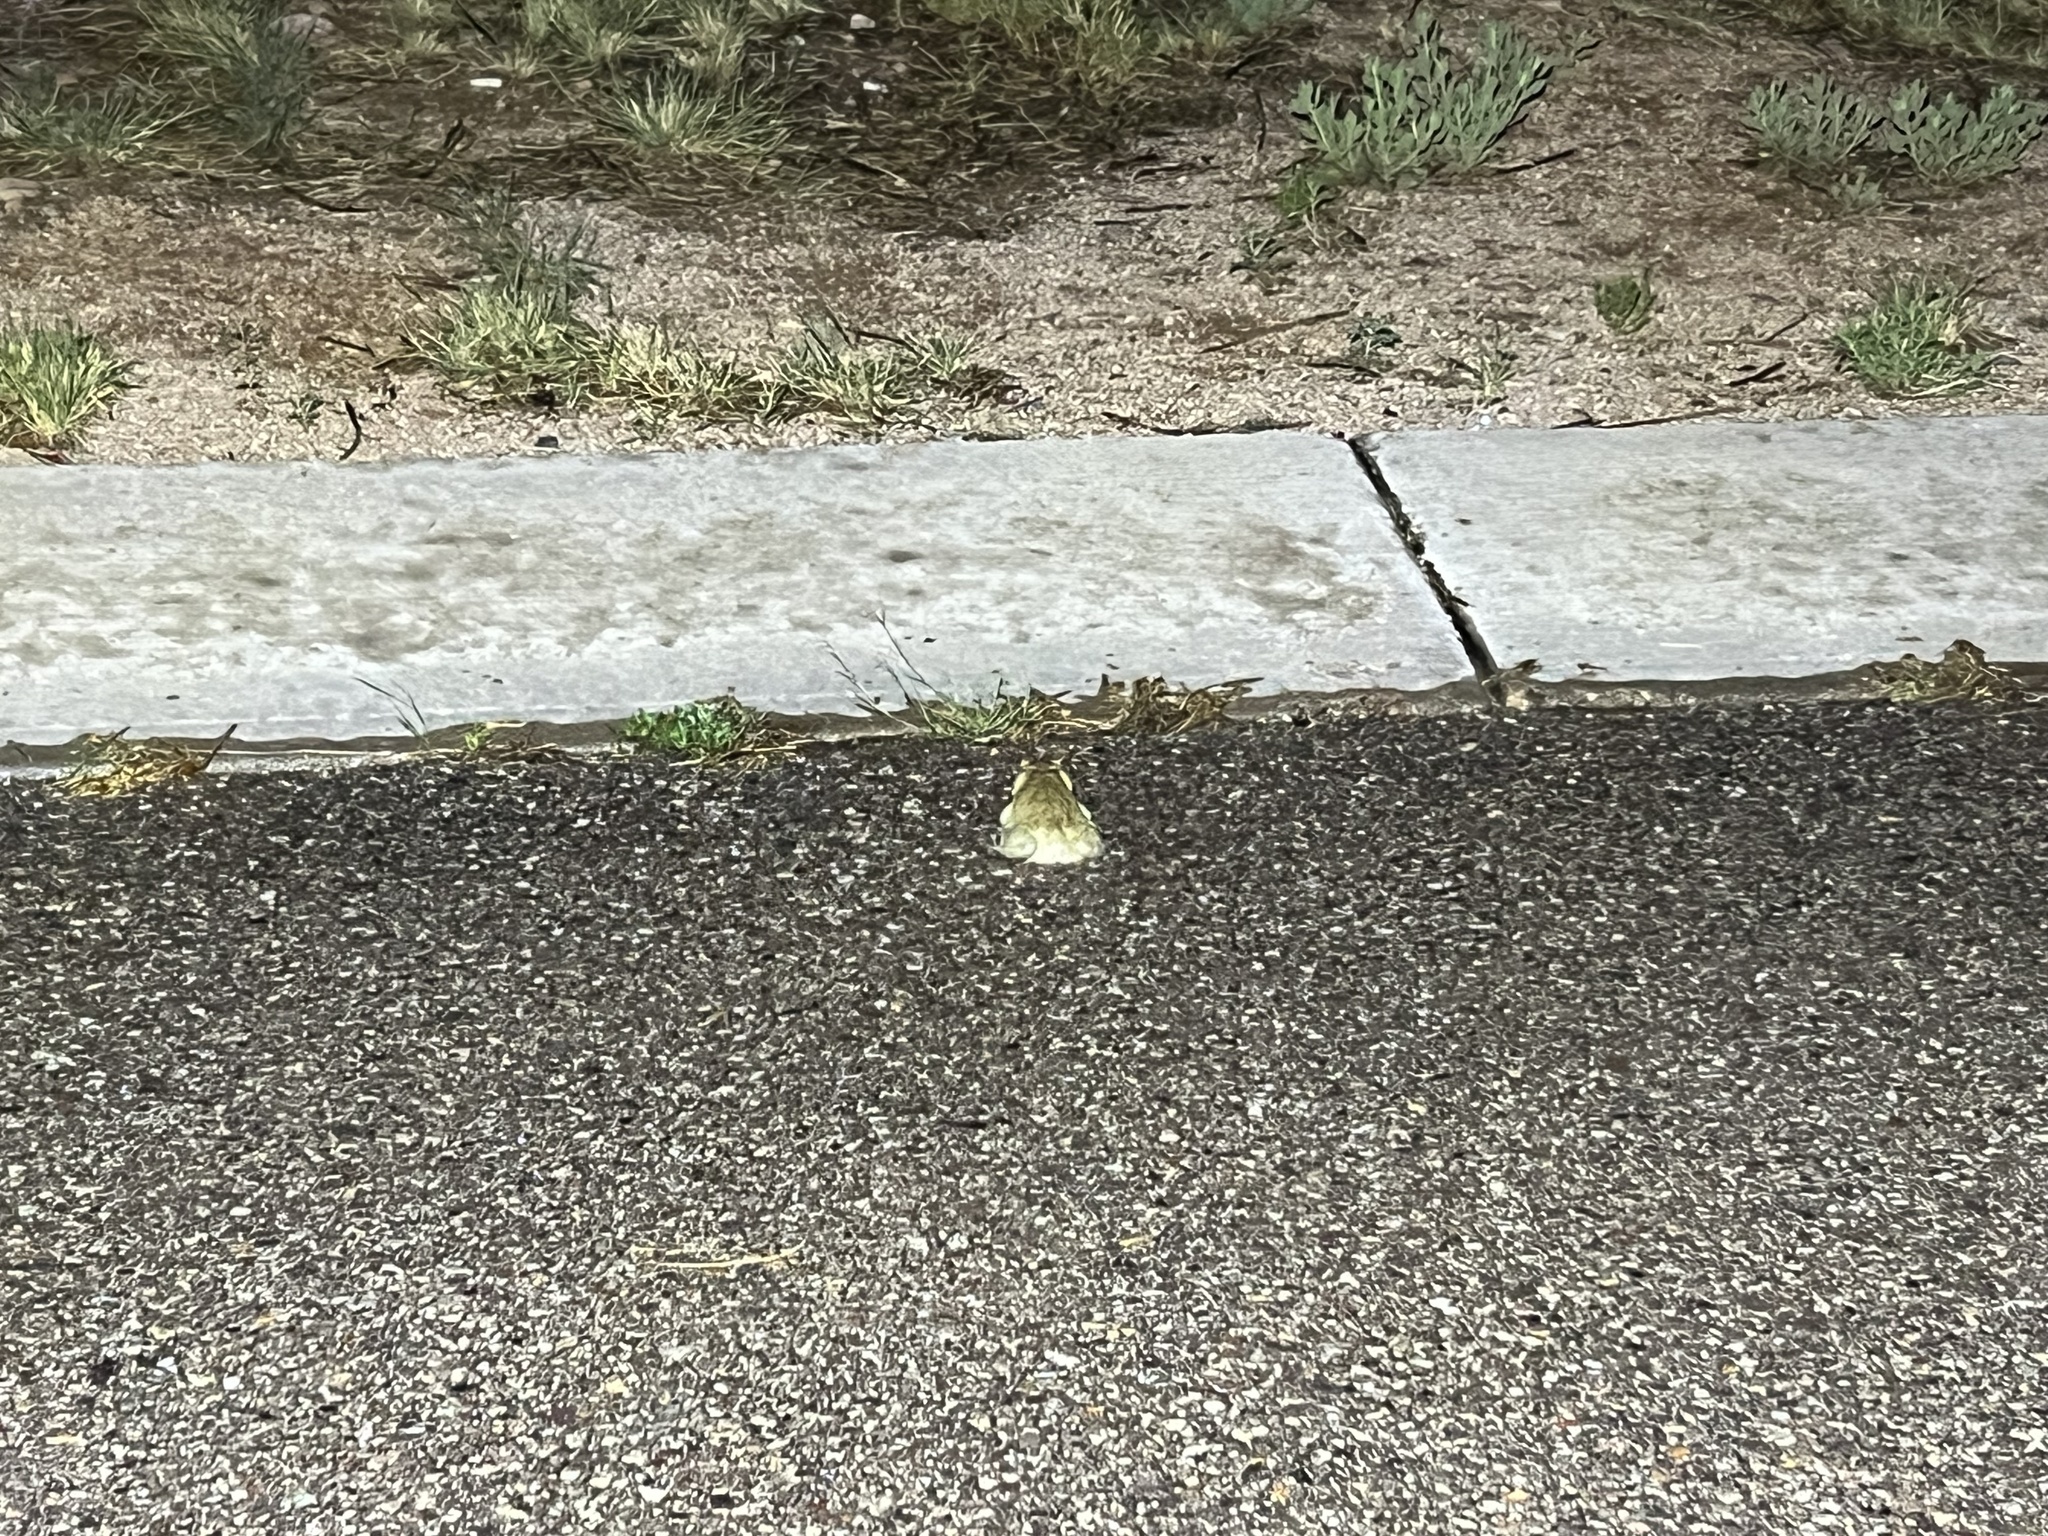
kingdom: Animalia
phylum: Chordata
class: Amphibia
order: Anura
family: Bufonidae
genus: Incilius
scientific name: Incilius alvarius
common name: Sonoran desert toad
